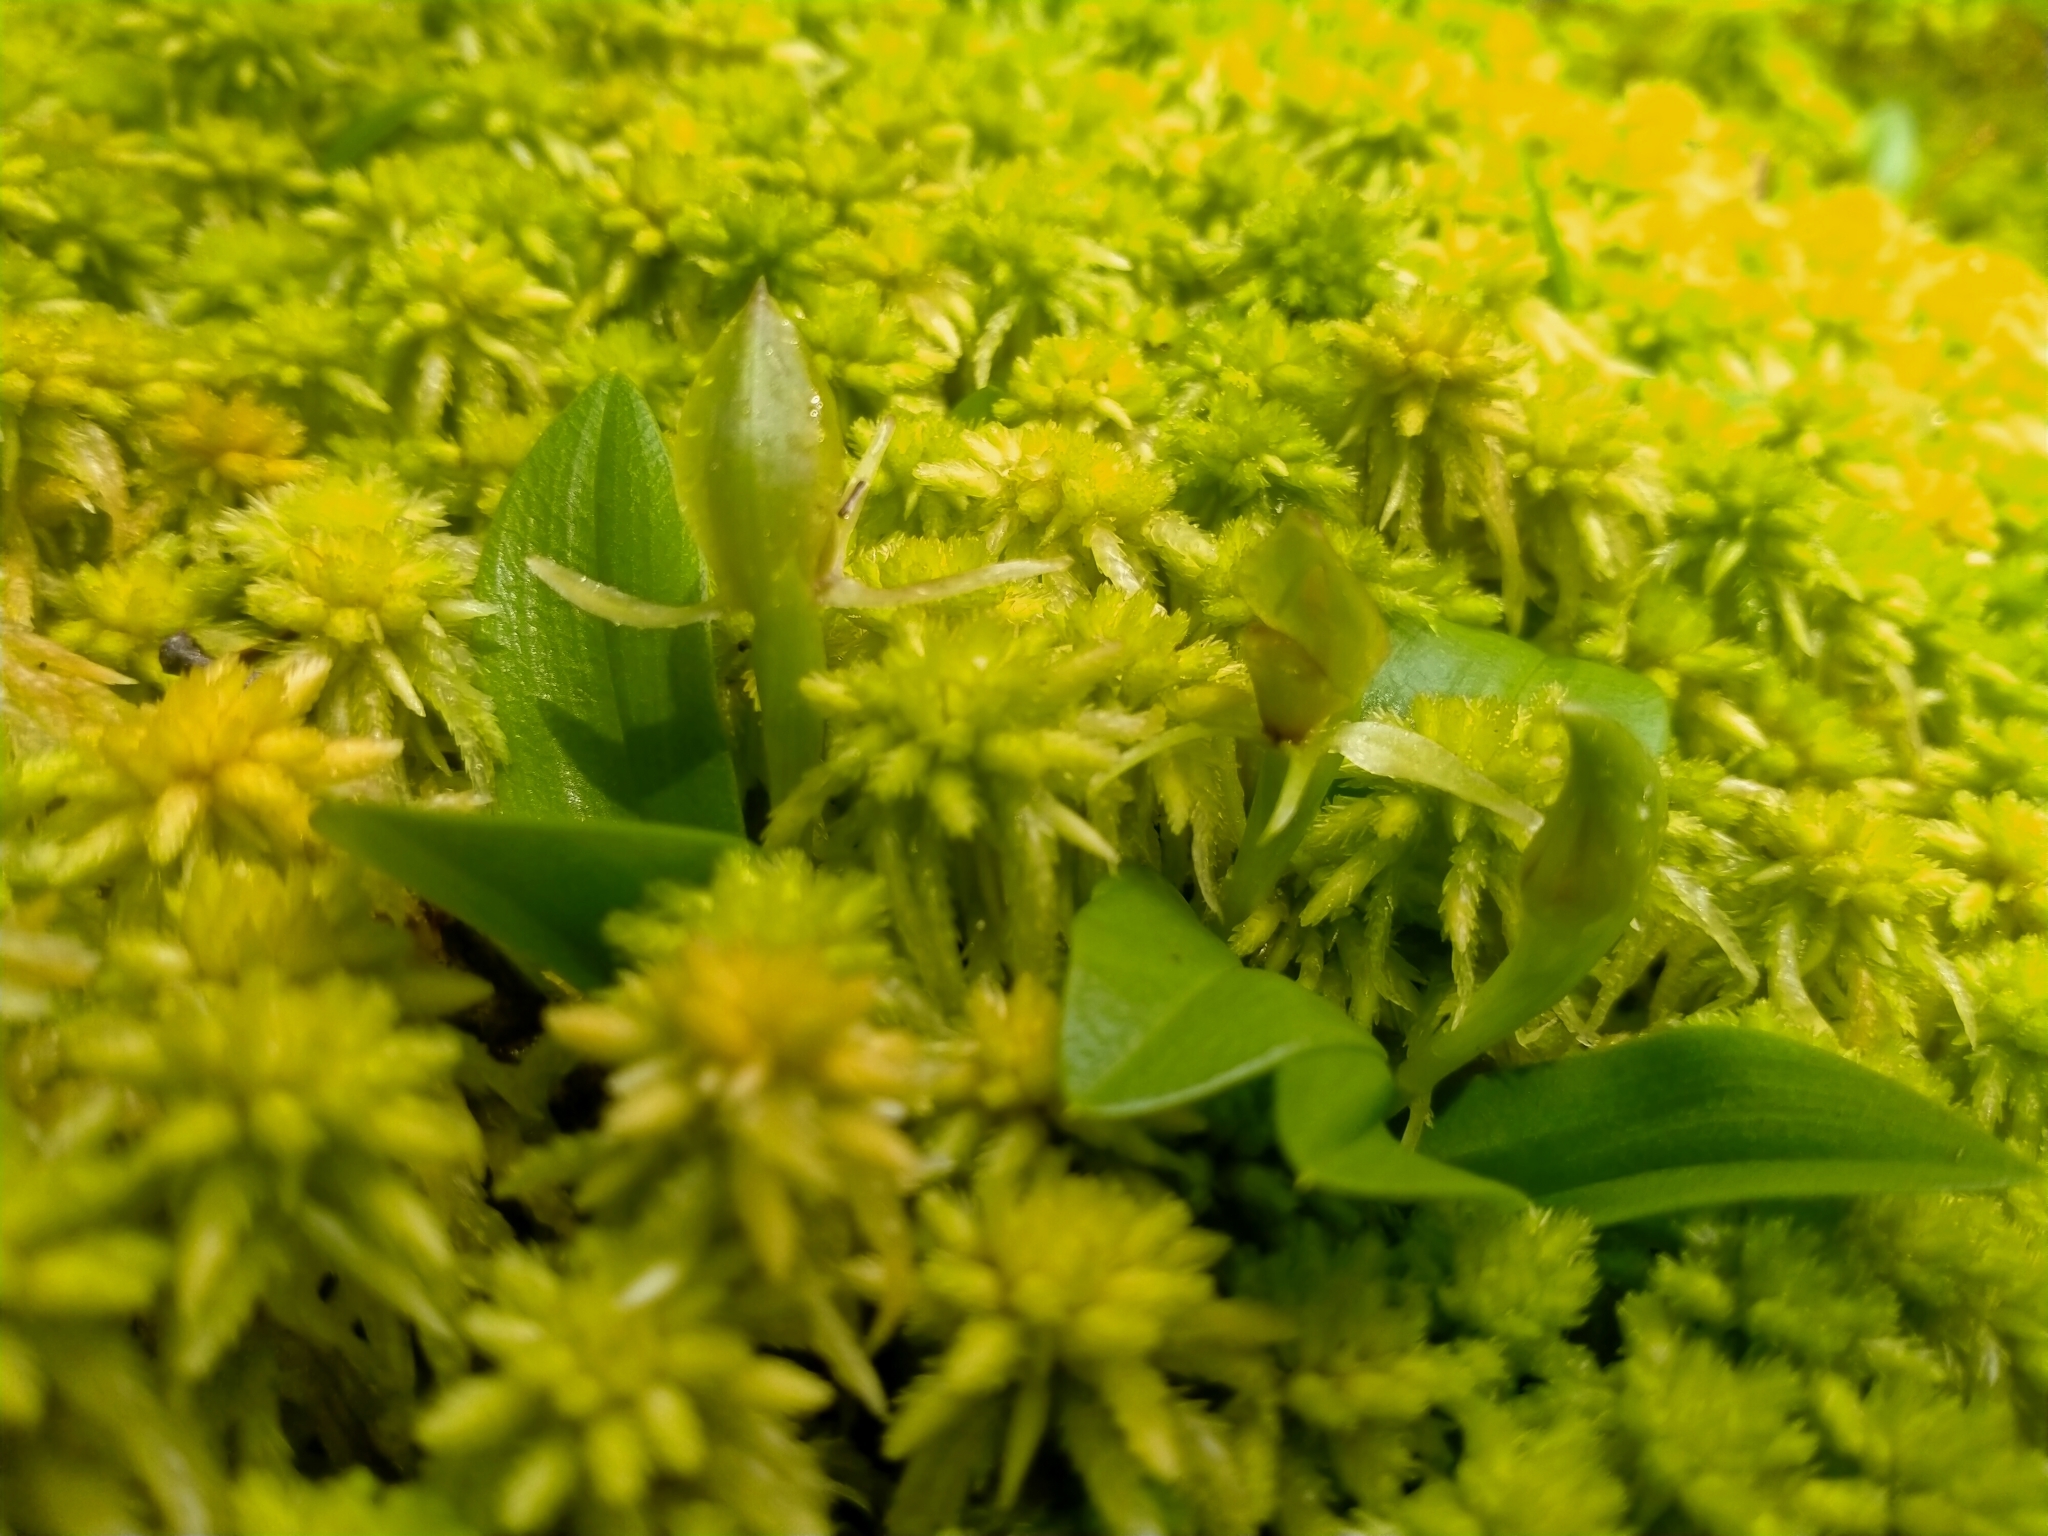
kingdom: Plantae
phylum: Tracheophyta
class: Liliopsida
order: Asparagales
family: Orchidaceae
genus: Chiloglottis
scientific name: Chiloglottis cornuta
